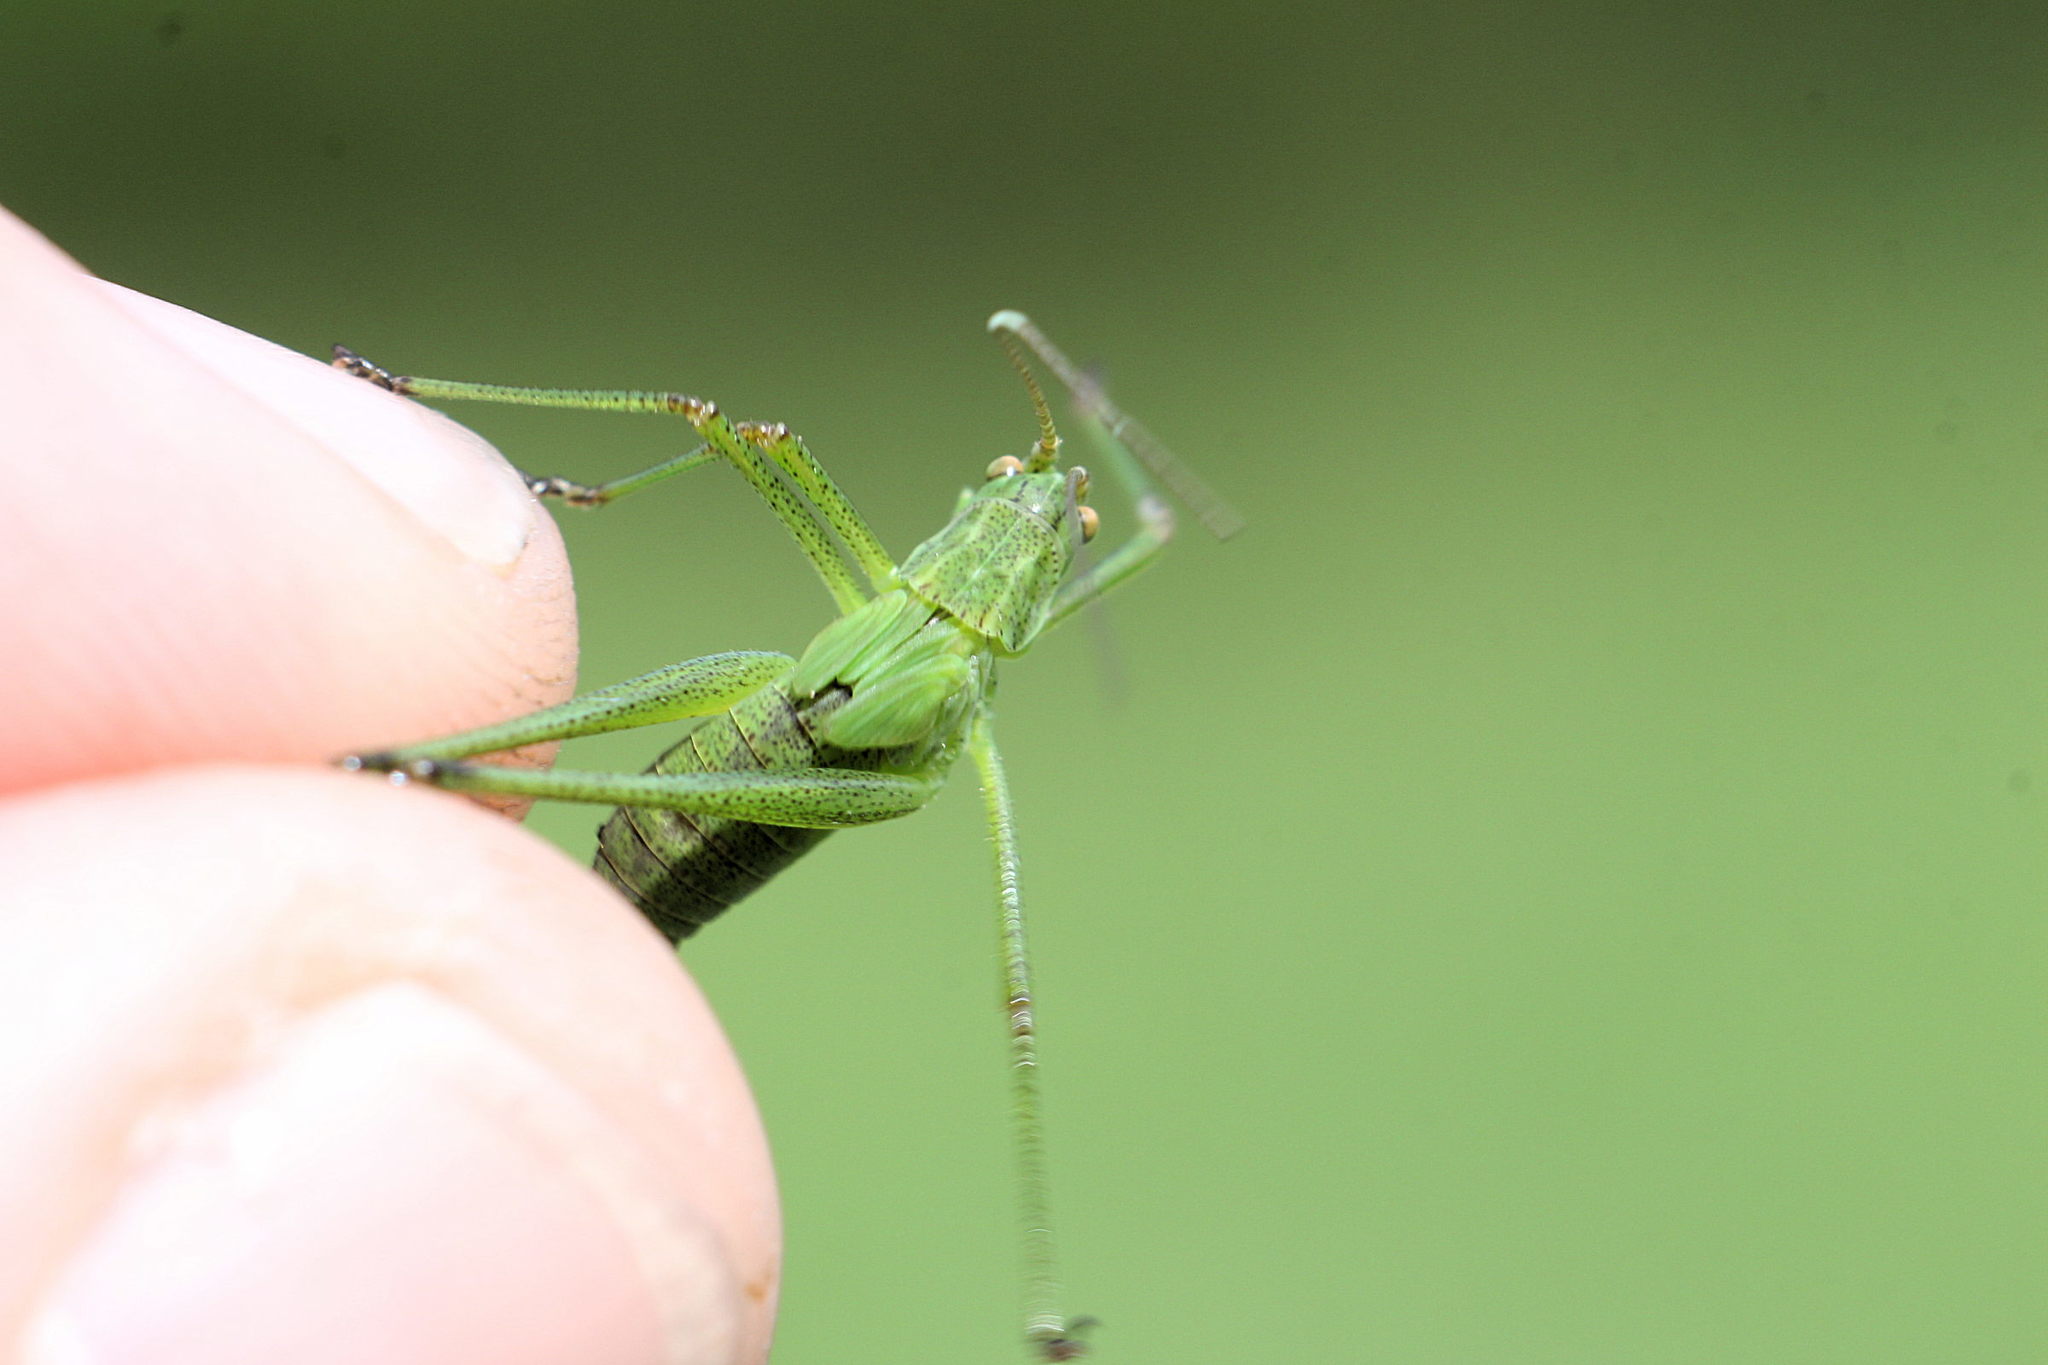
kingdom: Animalia
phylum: Arthropoda
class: Insecta
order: Orthoptera
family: Tettigoniidae
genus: Phaneroptera
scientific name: Phaneroptera falcata
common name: Sickle-bearing bush-cricket
